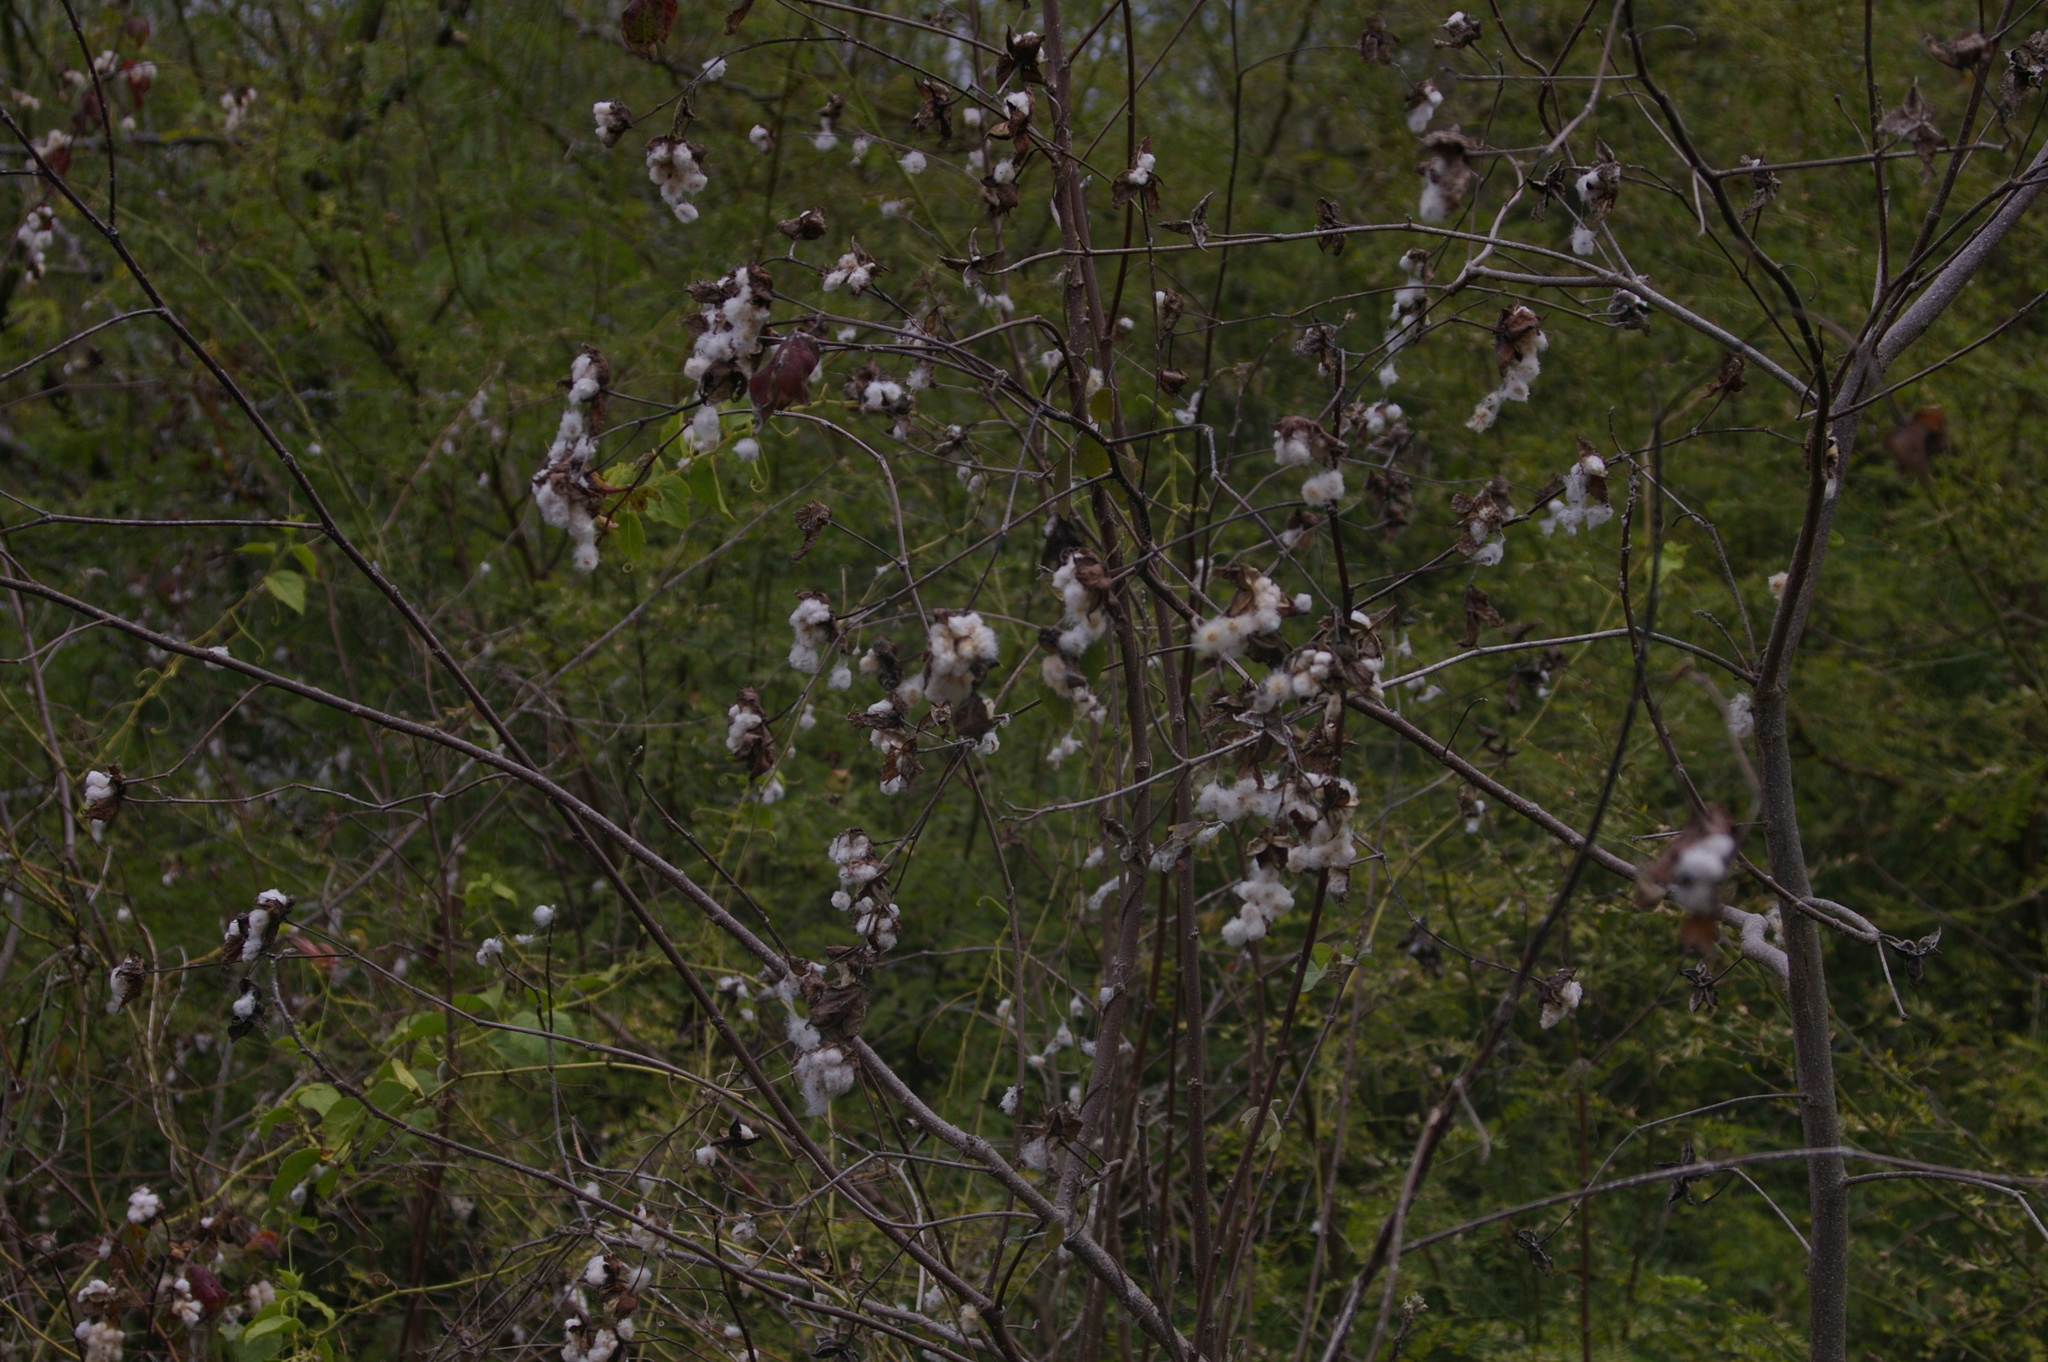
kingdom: Plantae
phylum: Tracheophyta
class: Magnoliopsida
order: Malvales
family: Malvaceae
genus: Gossypium
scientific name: Gossypium darwinii
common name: Darwin's cotton
